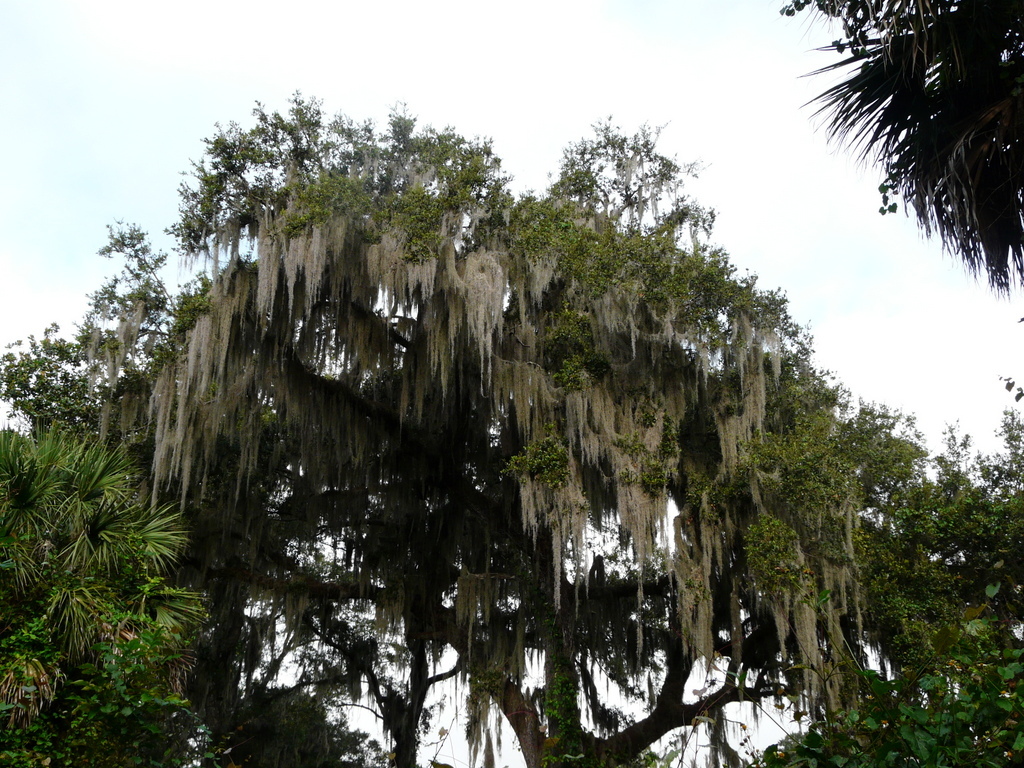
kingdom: Plantae
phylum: Tracheophyta
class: Liliopsida
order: Poales
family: Bromeliaceae
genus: Tillandsia
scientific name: Tillandsia usneoides
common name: Spanish moss
